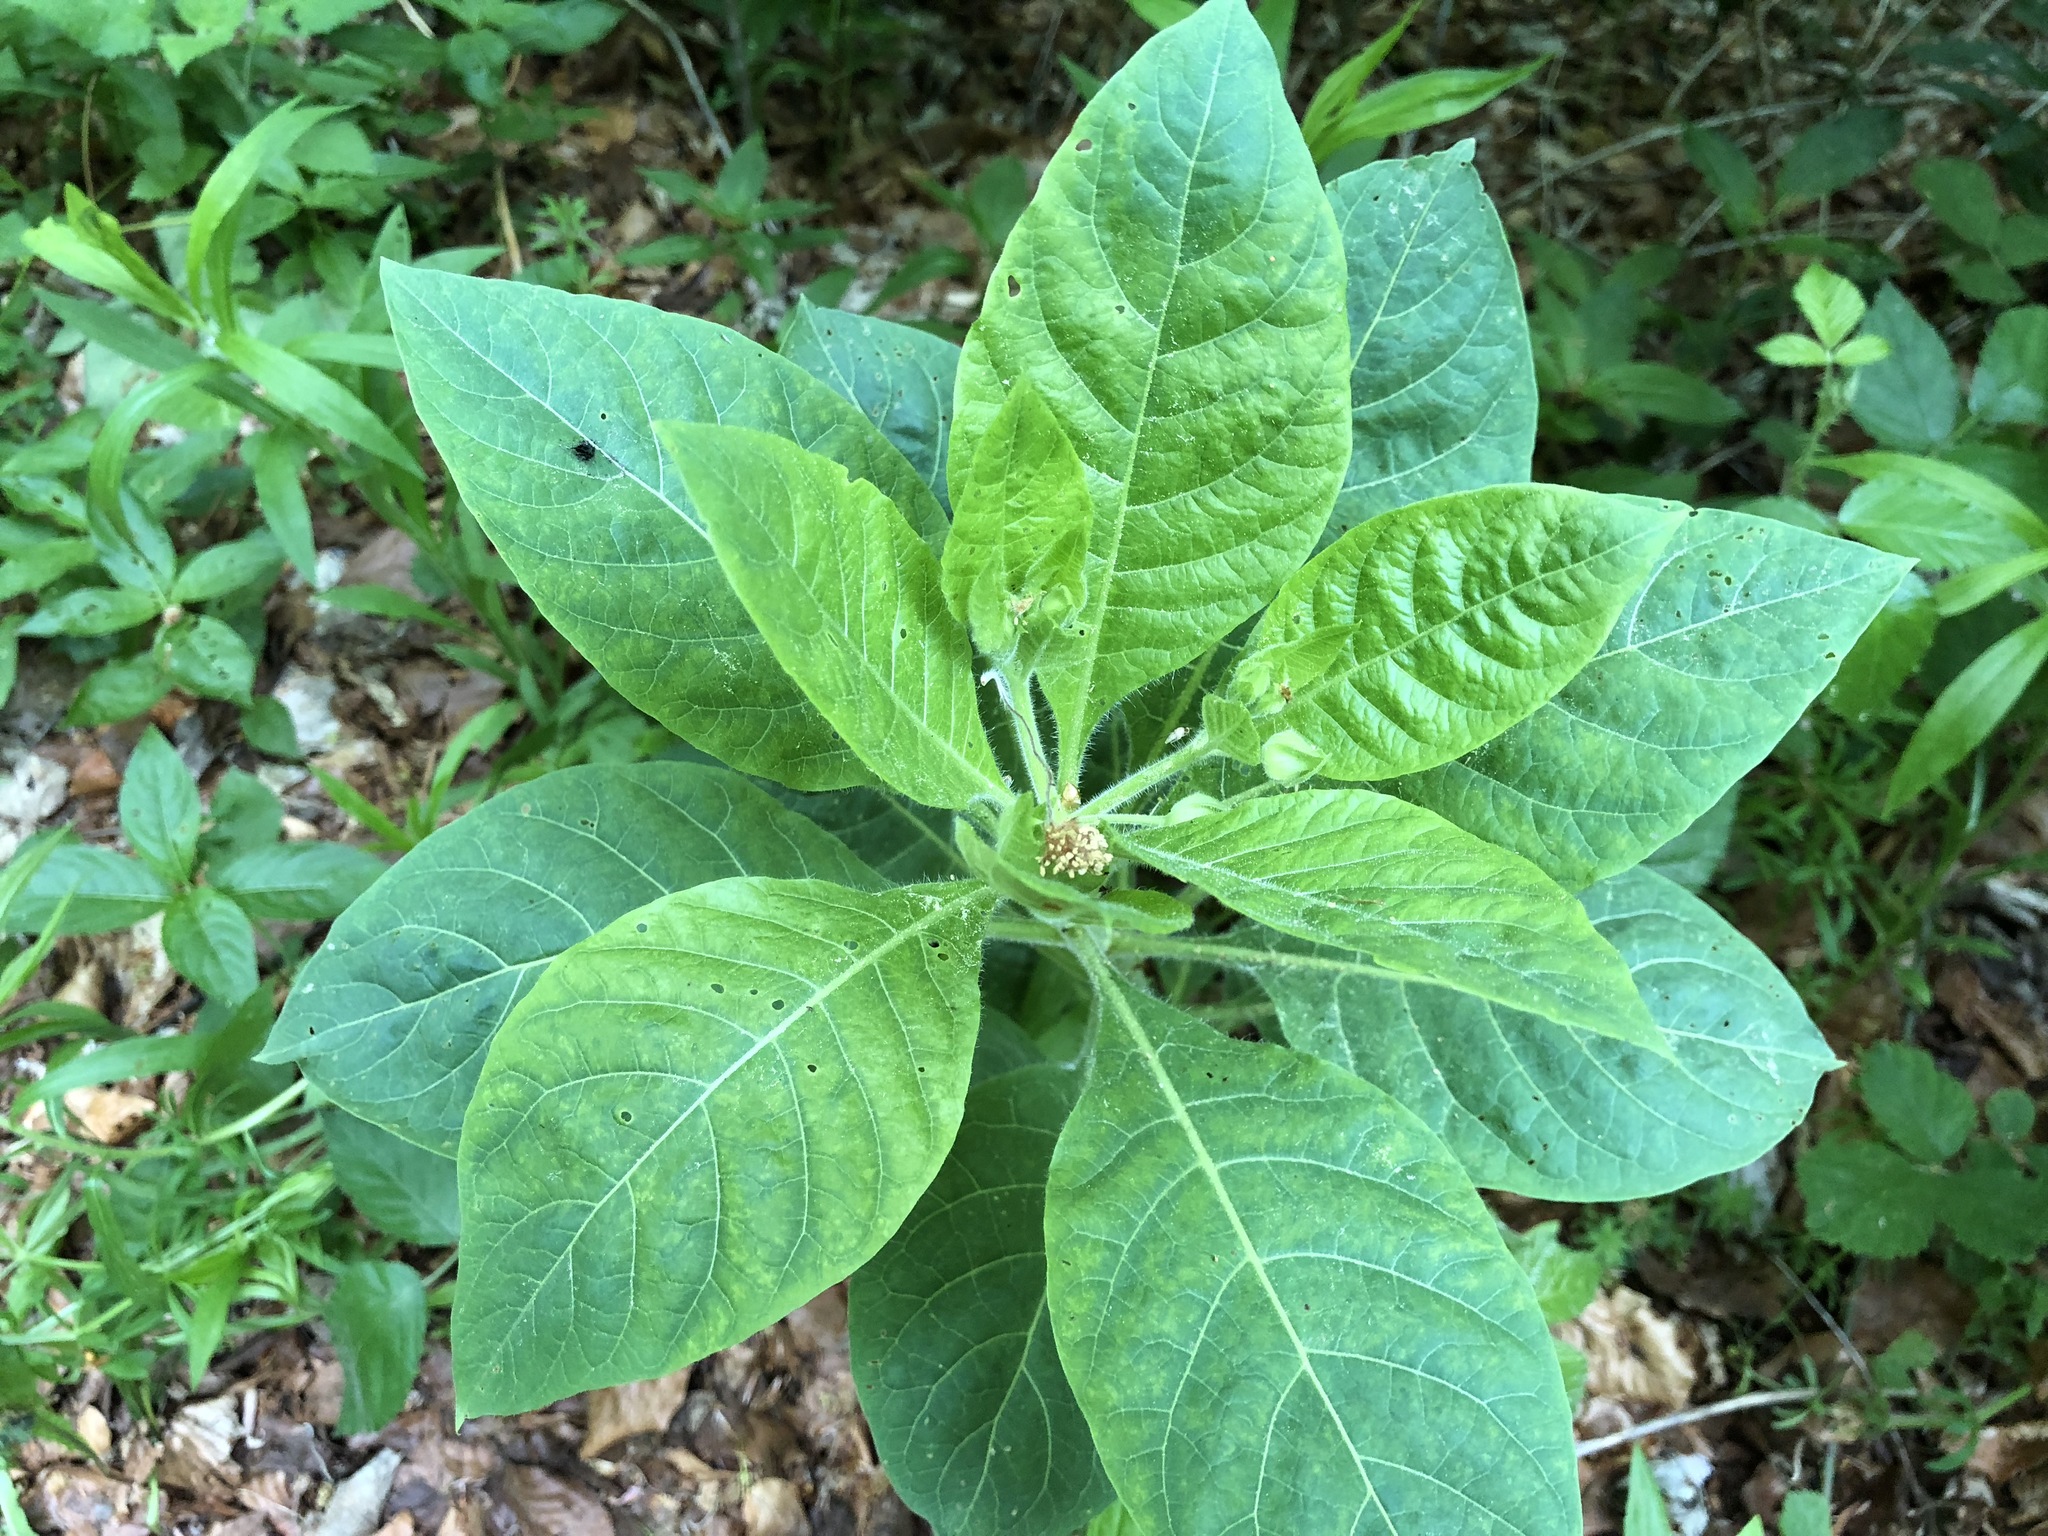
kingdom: Plantae
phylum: Tracheophyta
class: Magnoliopsida
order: Solanales
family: Solanaceae
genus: Atropa
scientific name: Atropa belladonna
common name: Deadly nightshade
